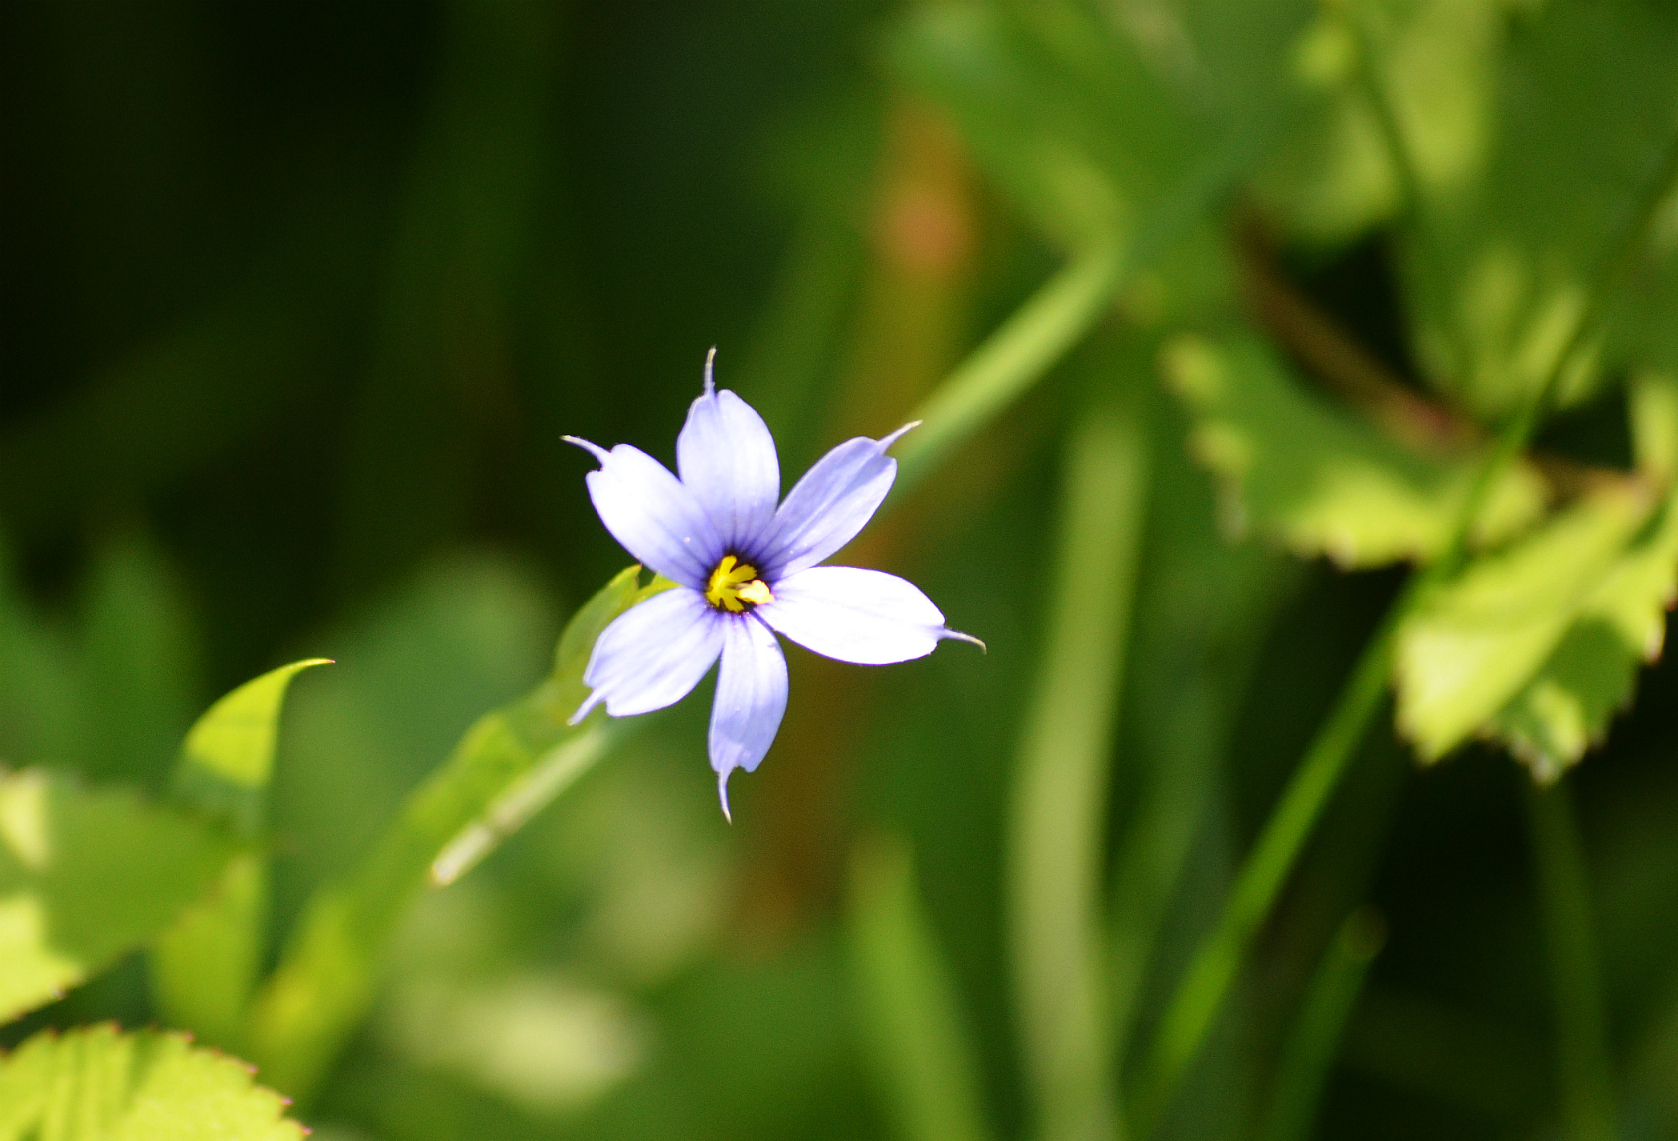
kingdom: Plantae
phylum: Tracheophyta
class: Liliopsida
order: Asparagales
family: Iridaceae
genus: Sisyrinchium
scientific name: Sisyrinchium angustifolium
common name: Narrow-leaf blue-eyed-grass
